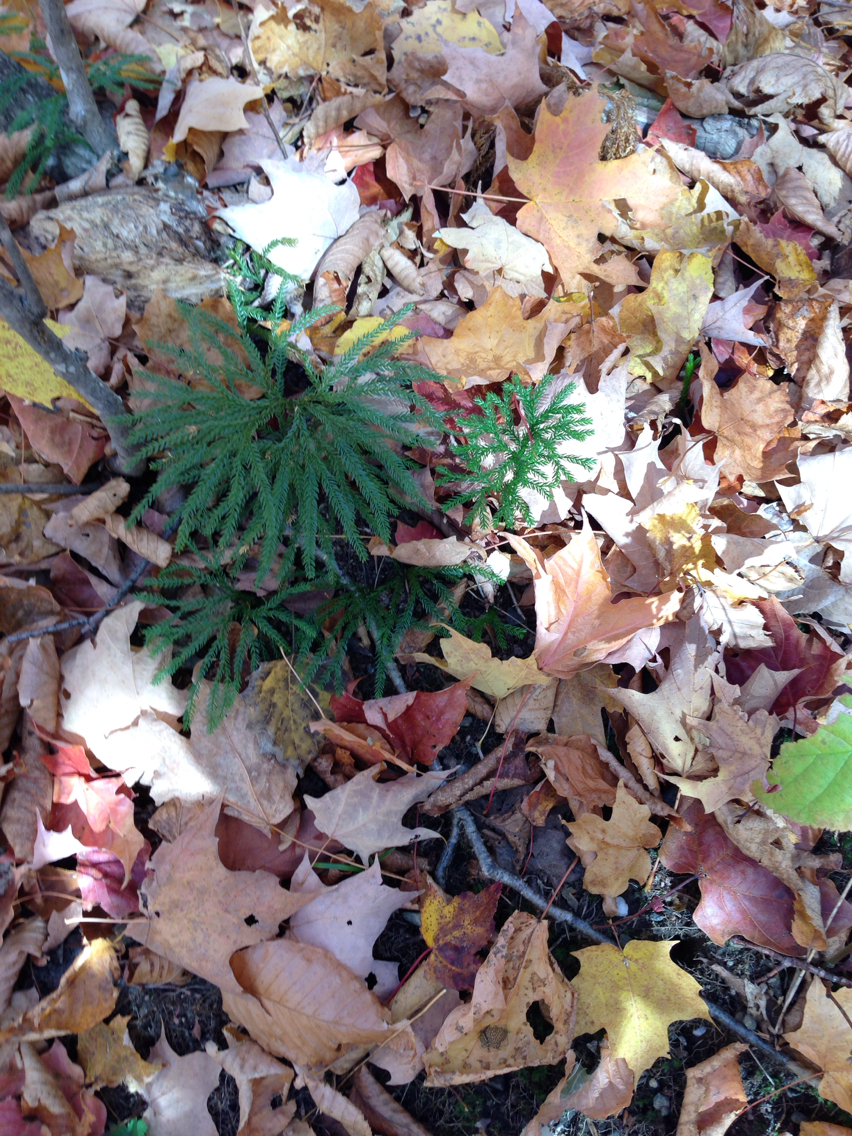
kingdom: Plantae
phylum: Tracheophyta
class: Lycopodiopsida
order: Lycopodiales
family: Lycopodiaceae
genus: Dendrolycopodium
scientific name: Dendrolycopodium obscurum
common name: Common ground-pine
